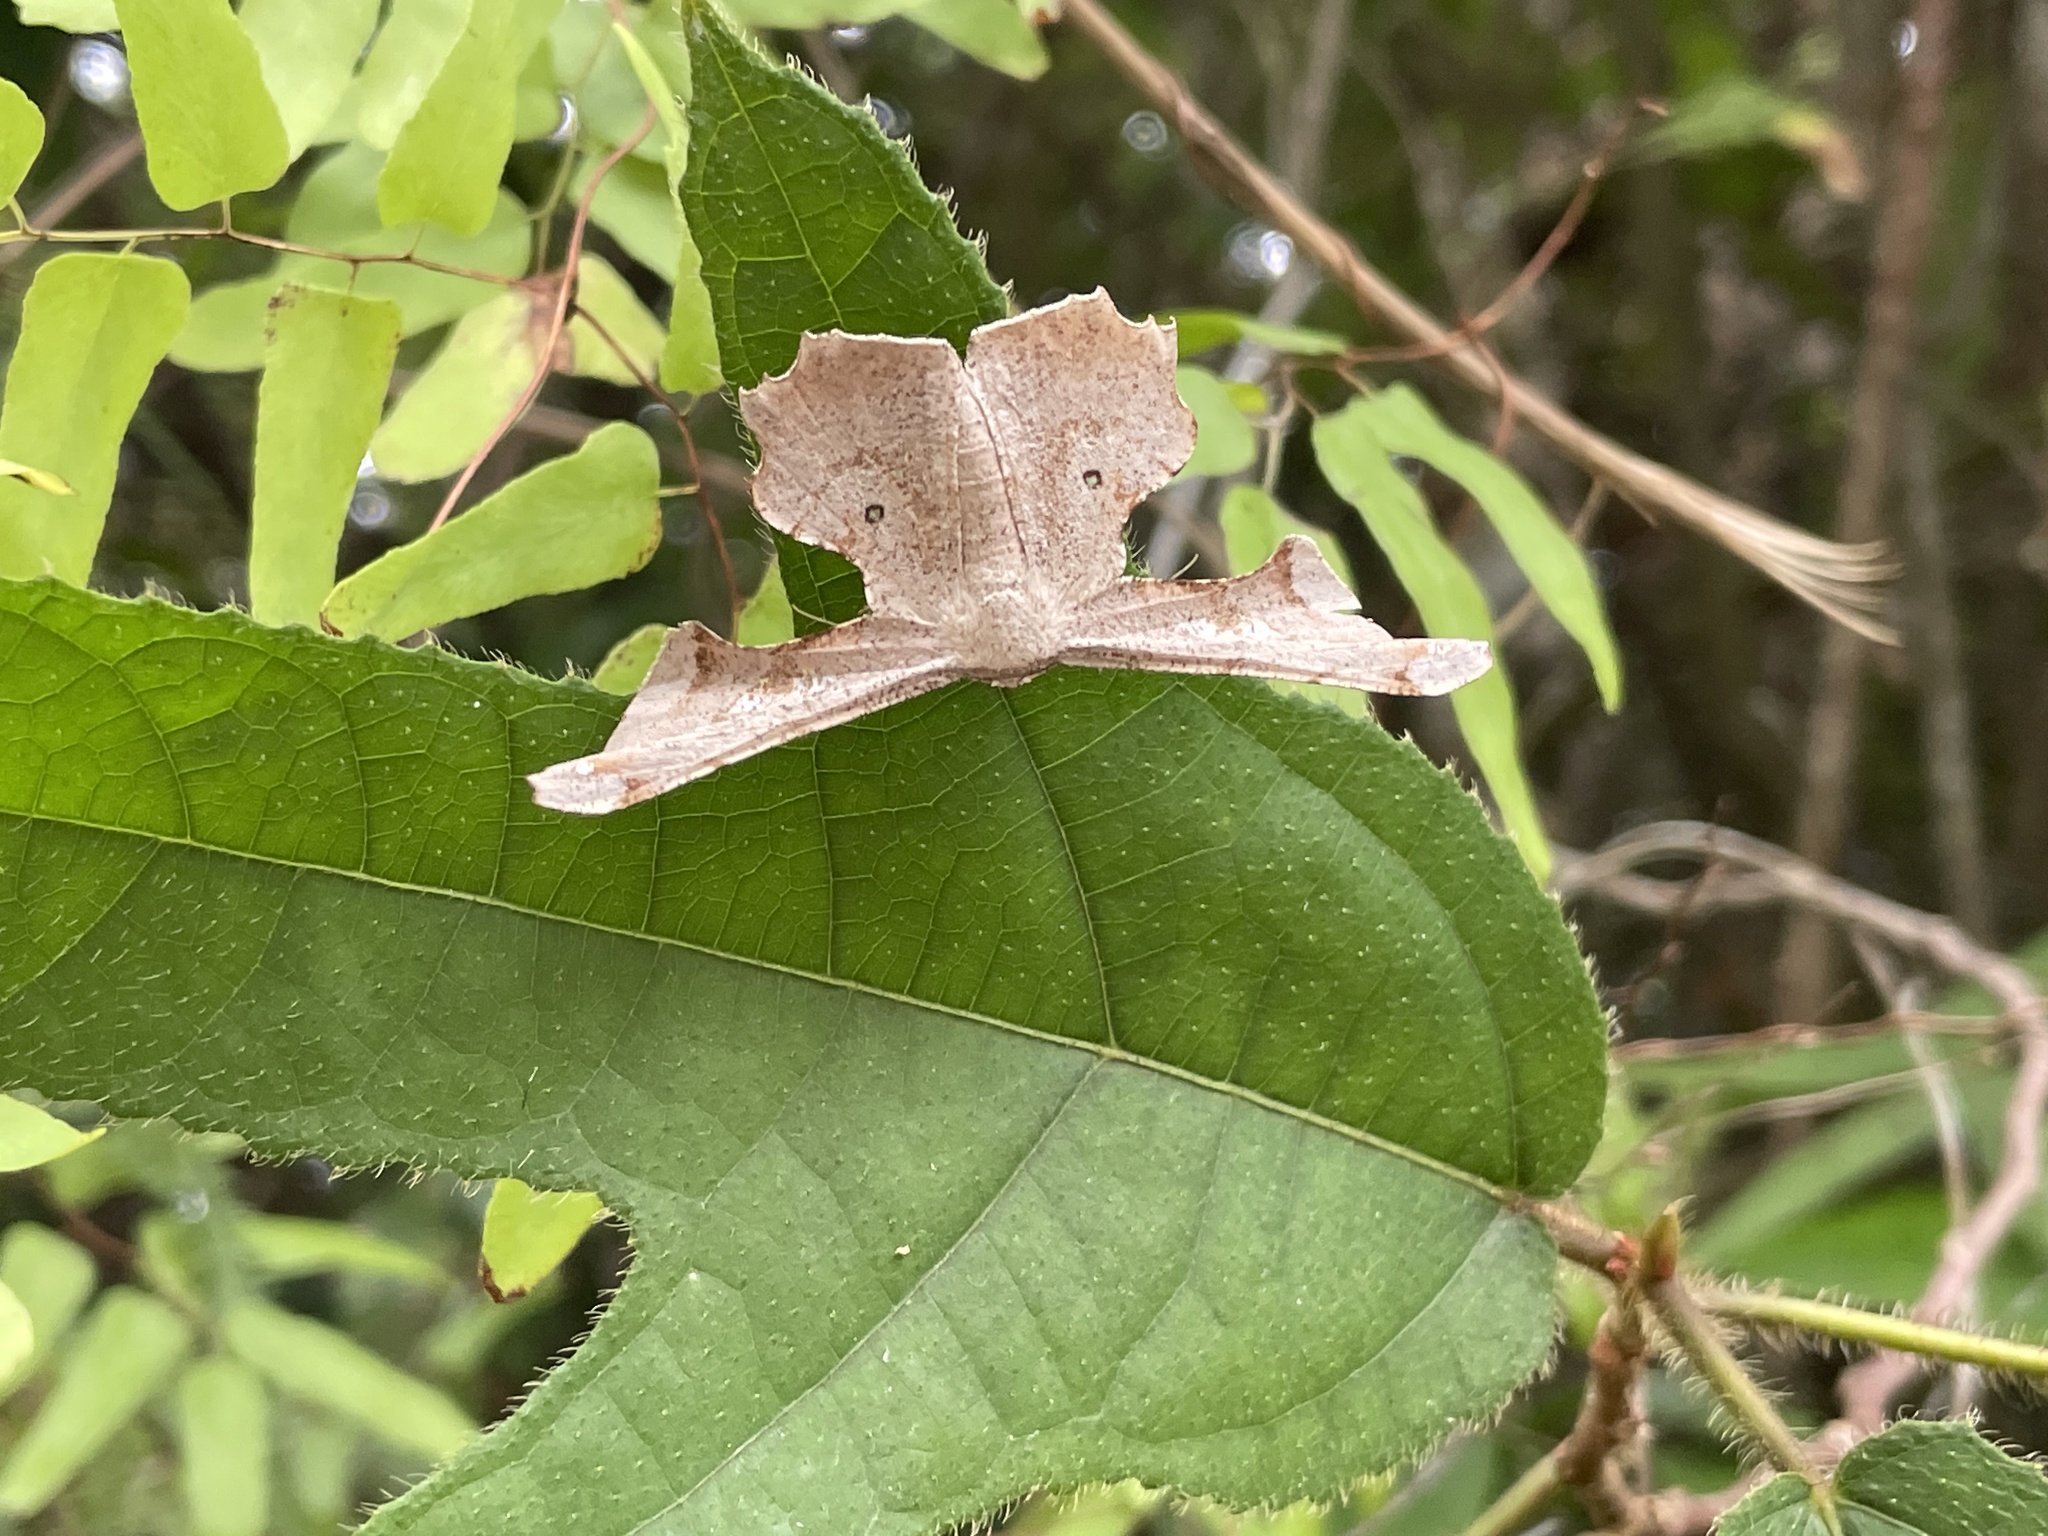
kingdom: Animalia
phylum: Arthropoda
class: Insecta
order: Lepidoptera
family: Geometridae
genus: Gonodontis
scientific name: Gonodontis clelia
